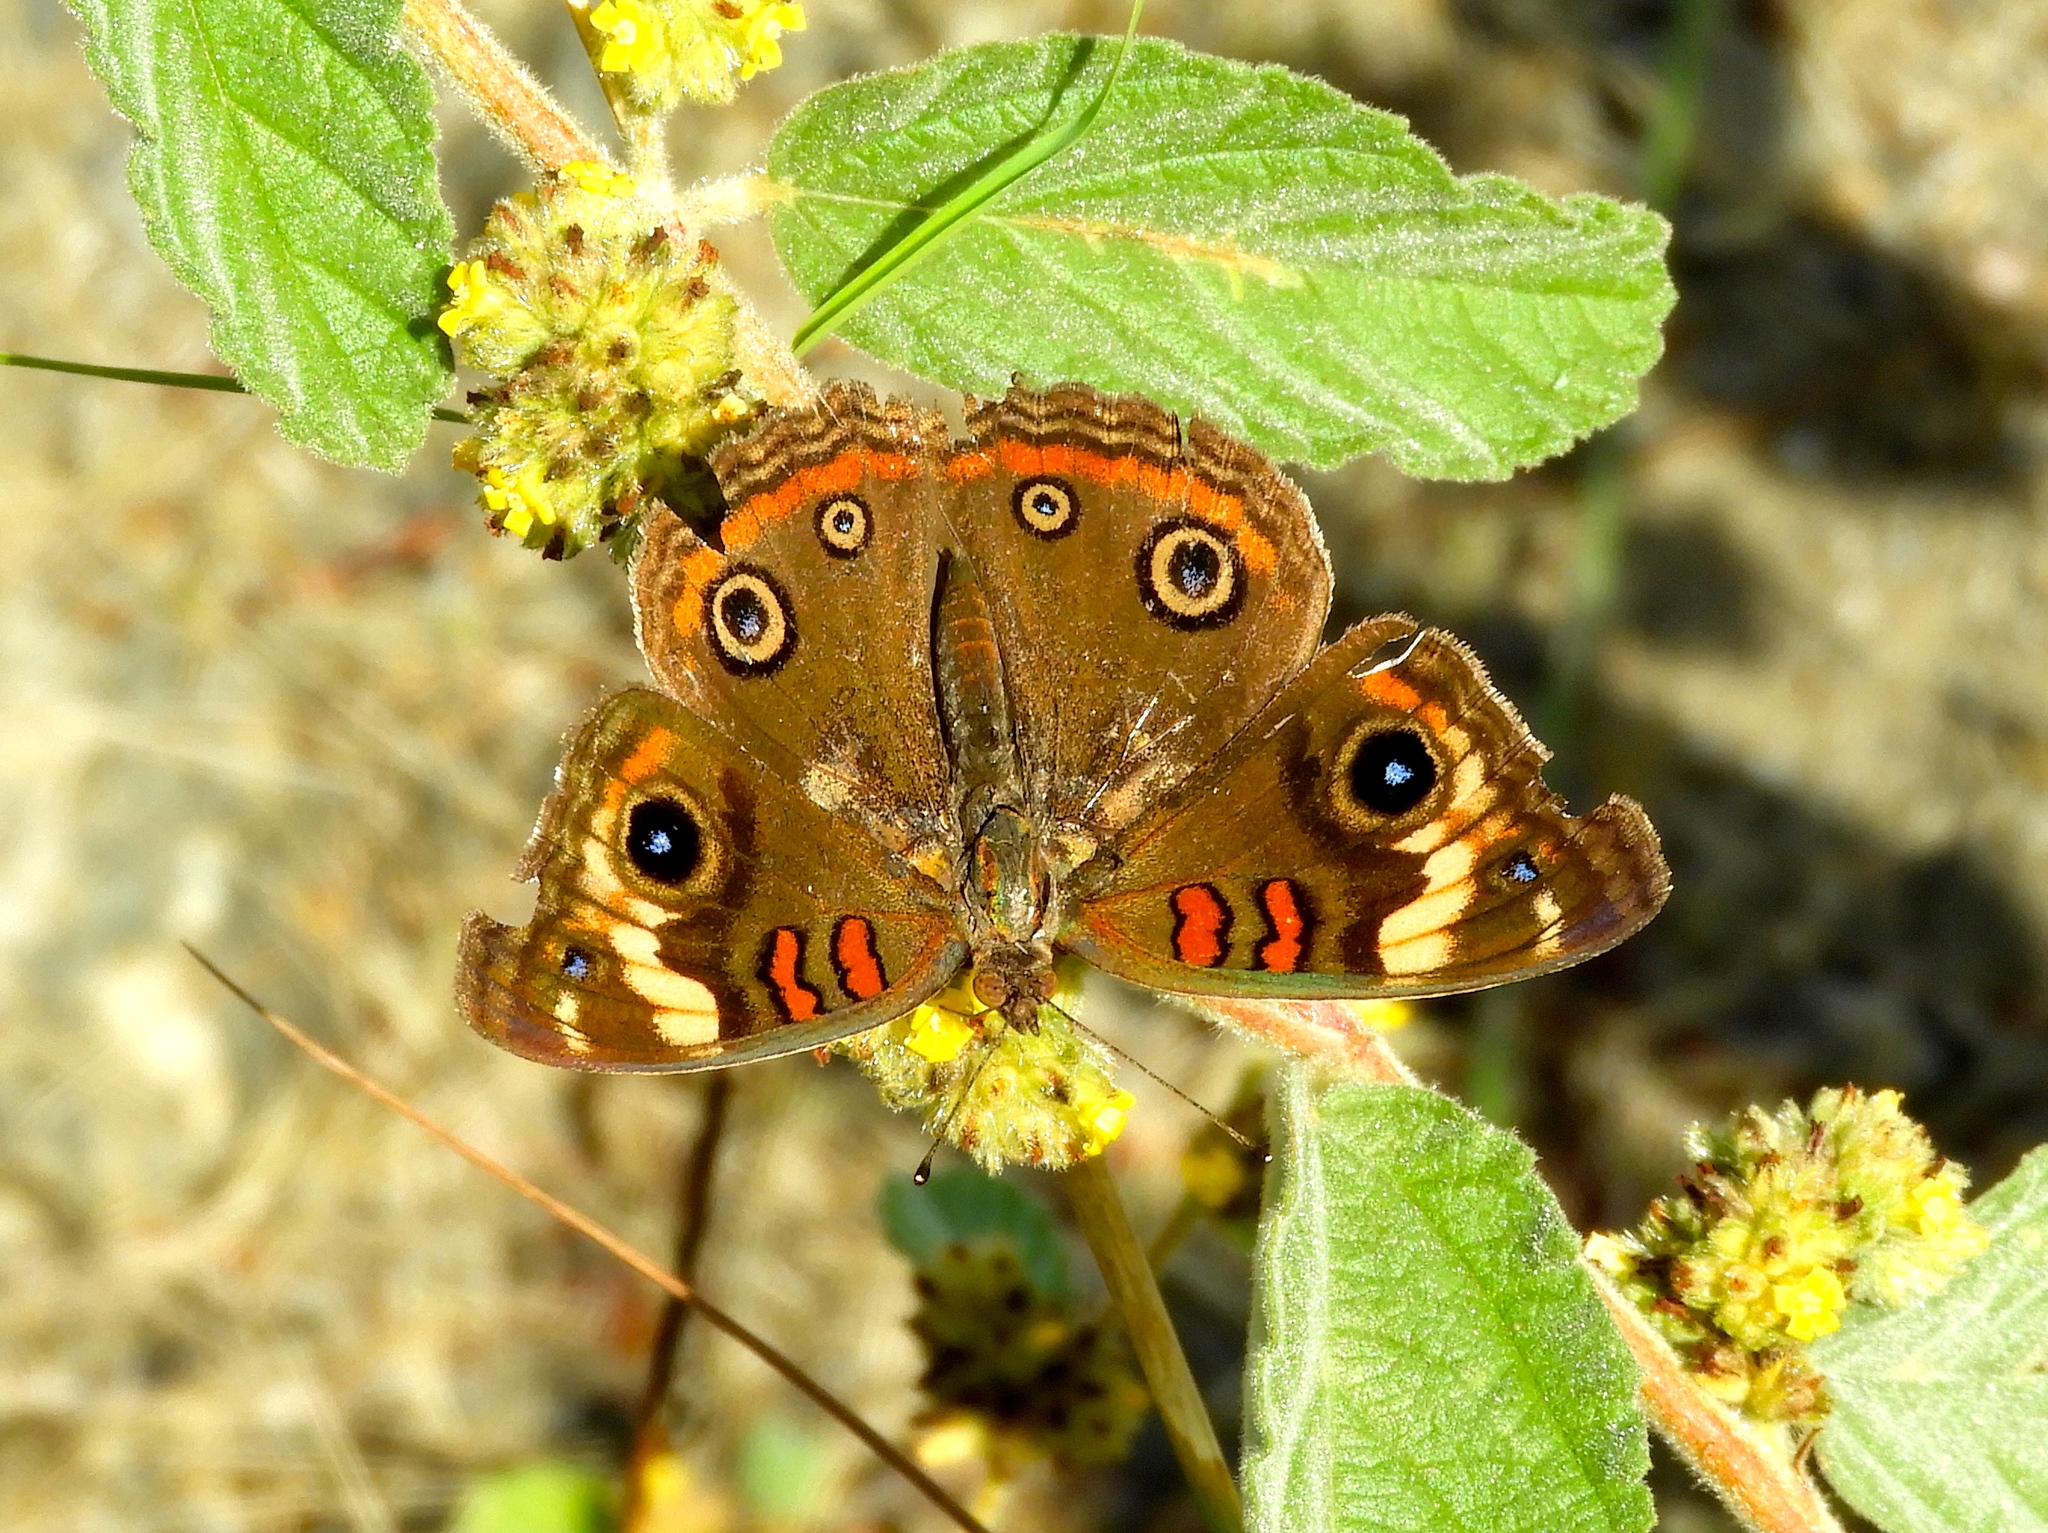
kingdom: Animalia
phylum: Arthropoda
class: Insecta
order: Lepidoptera
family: Nymphalidae
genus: Junonia
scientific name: Junonia coenia
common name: Common buckeye
